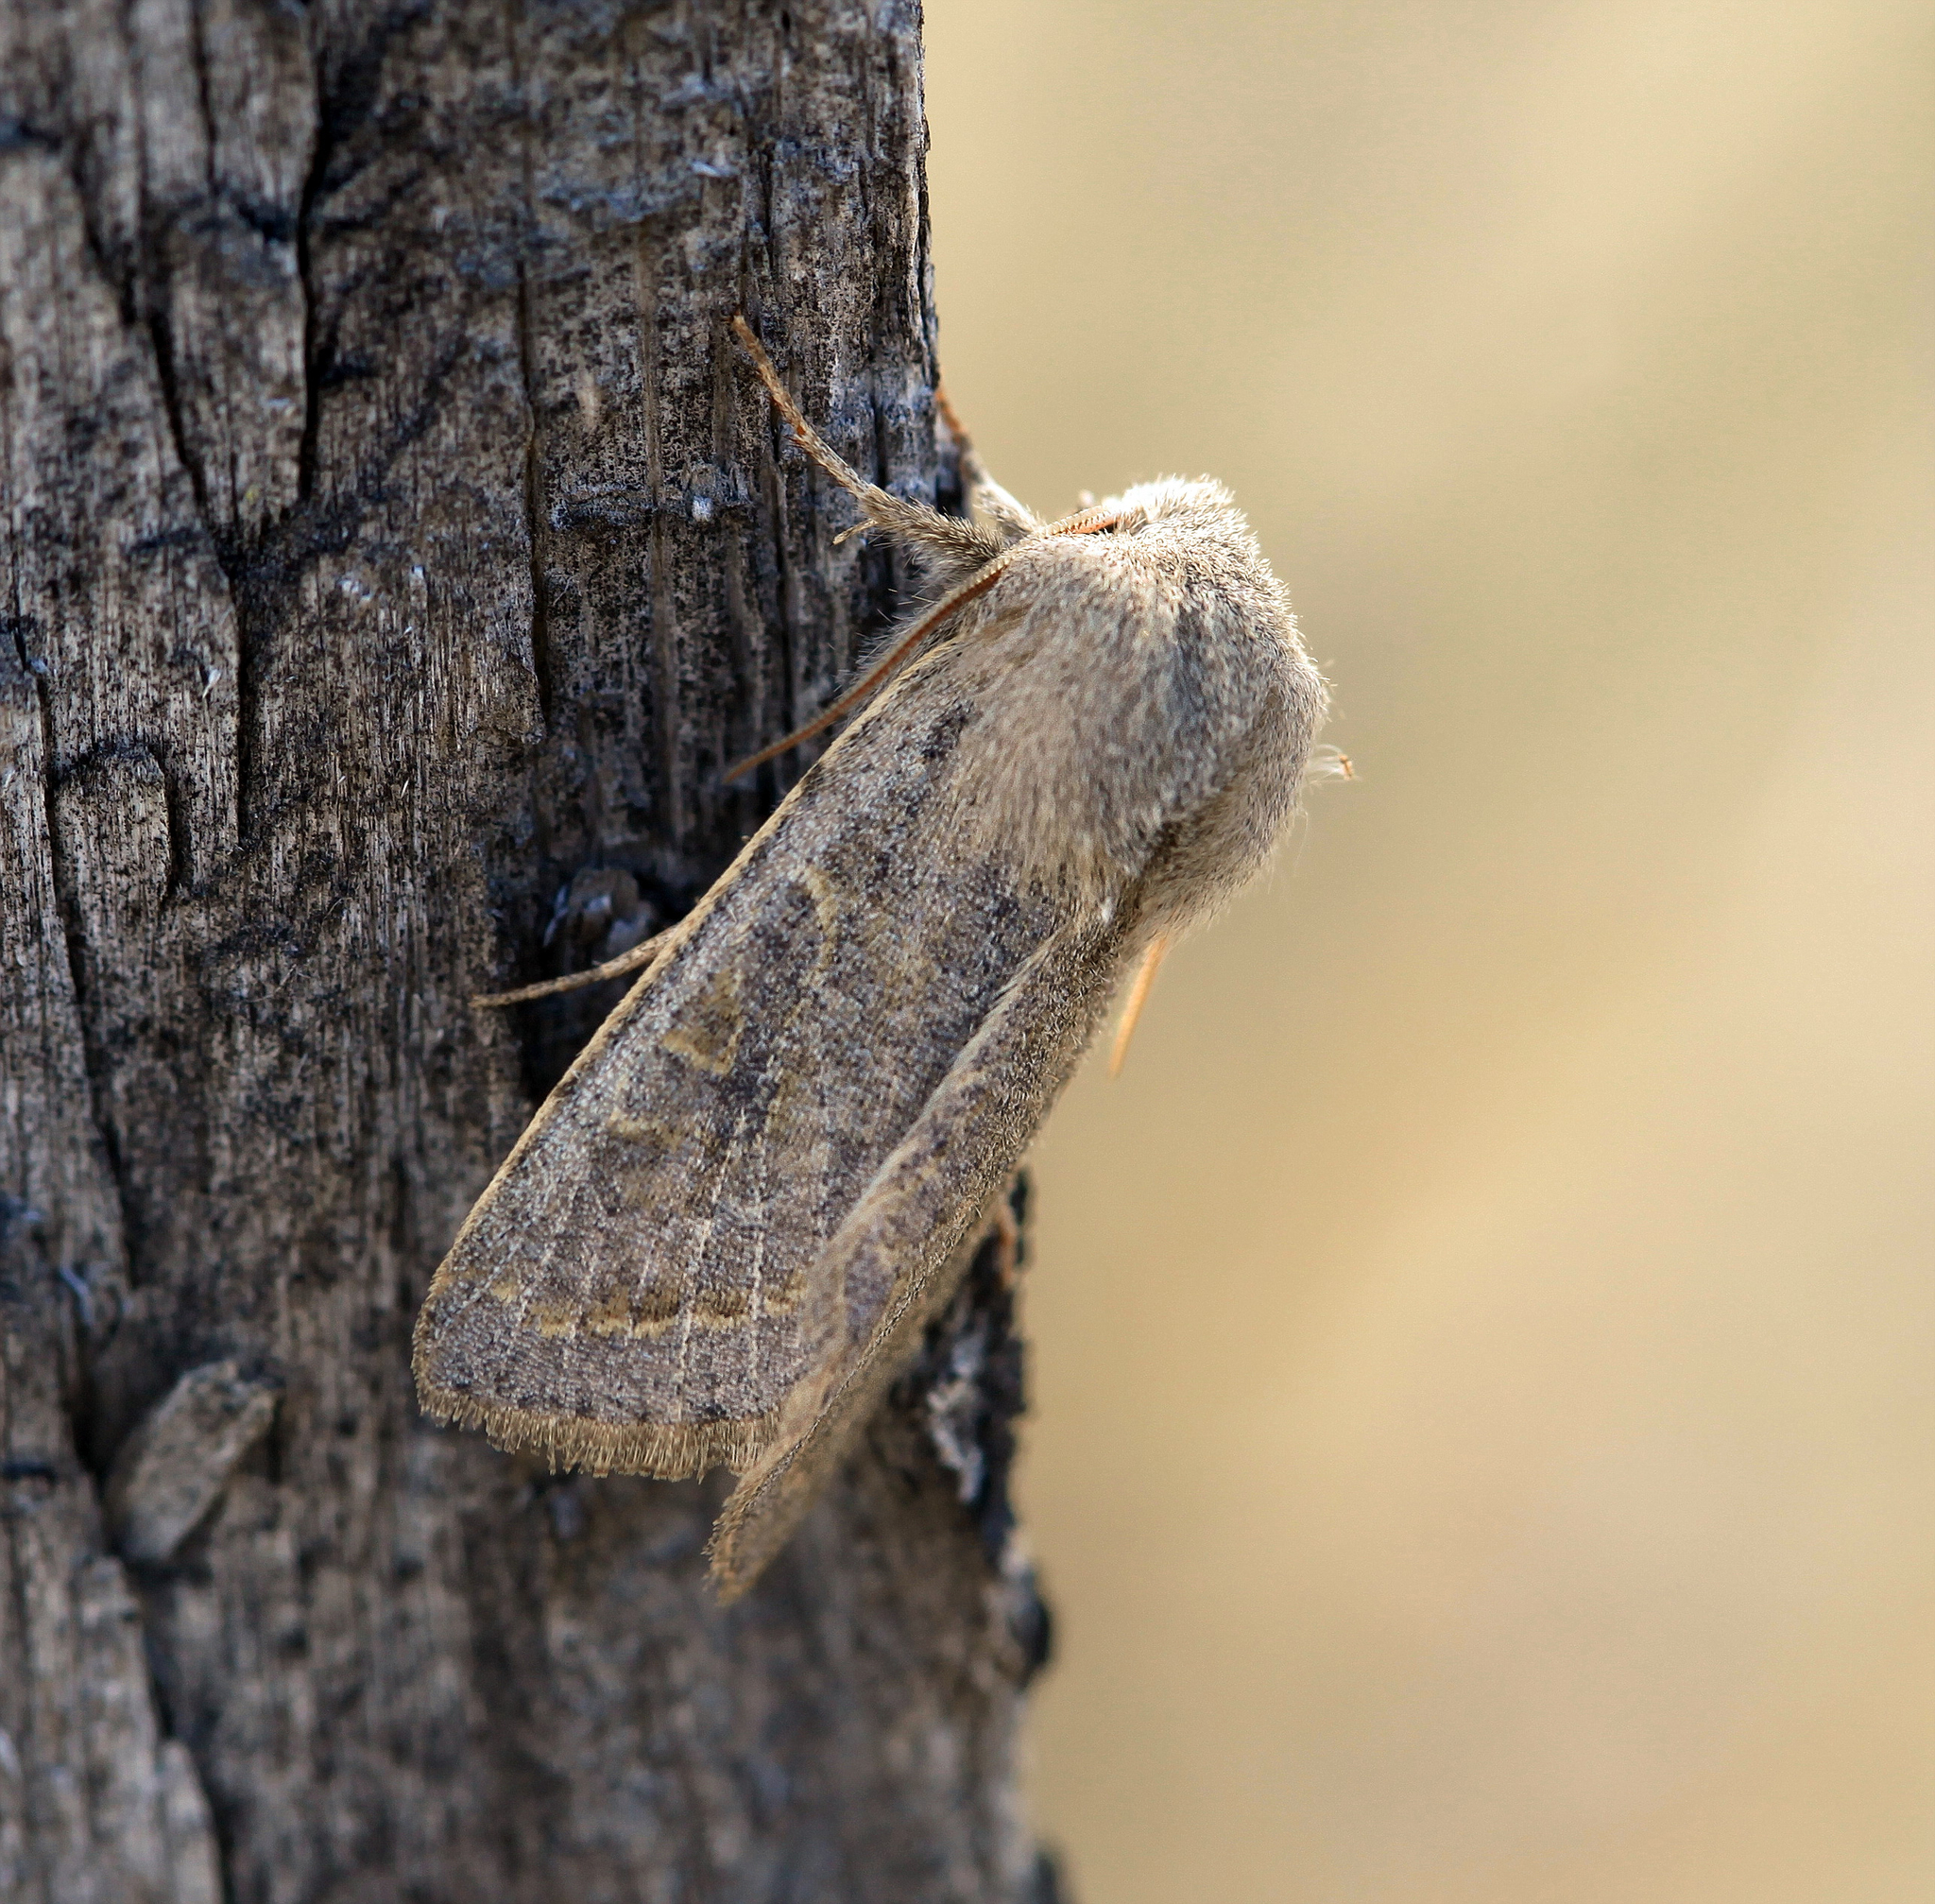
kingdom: Animalia
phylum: Arthropoda
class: Insecta
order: Lepidoptera
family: Noctuidae
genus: Orthosia
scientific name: Orthosia ariuna
